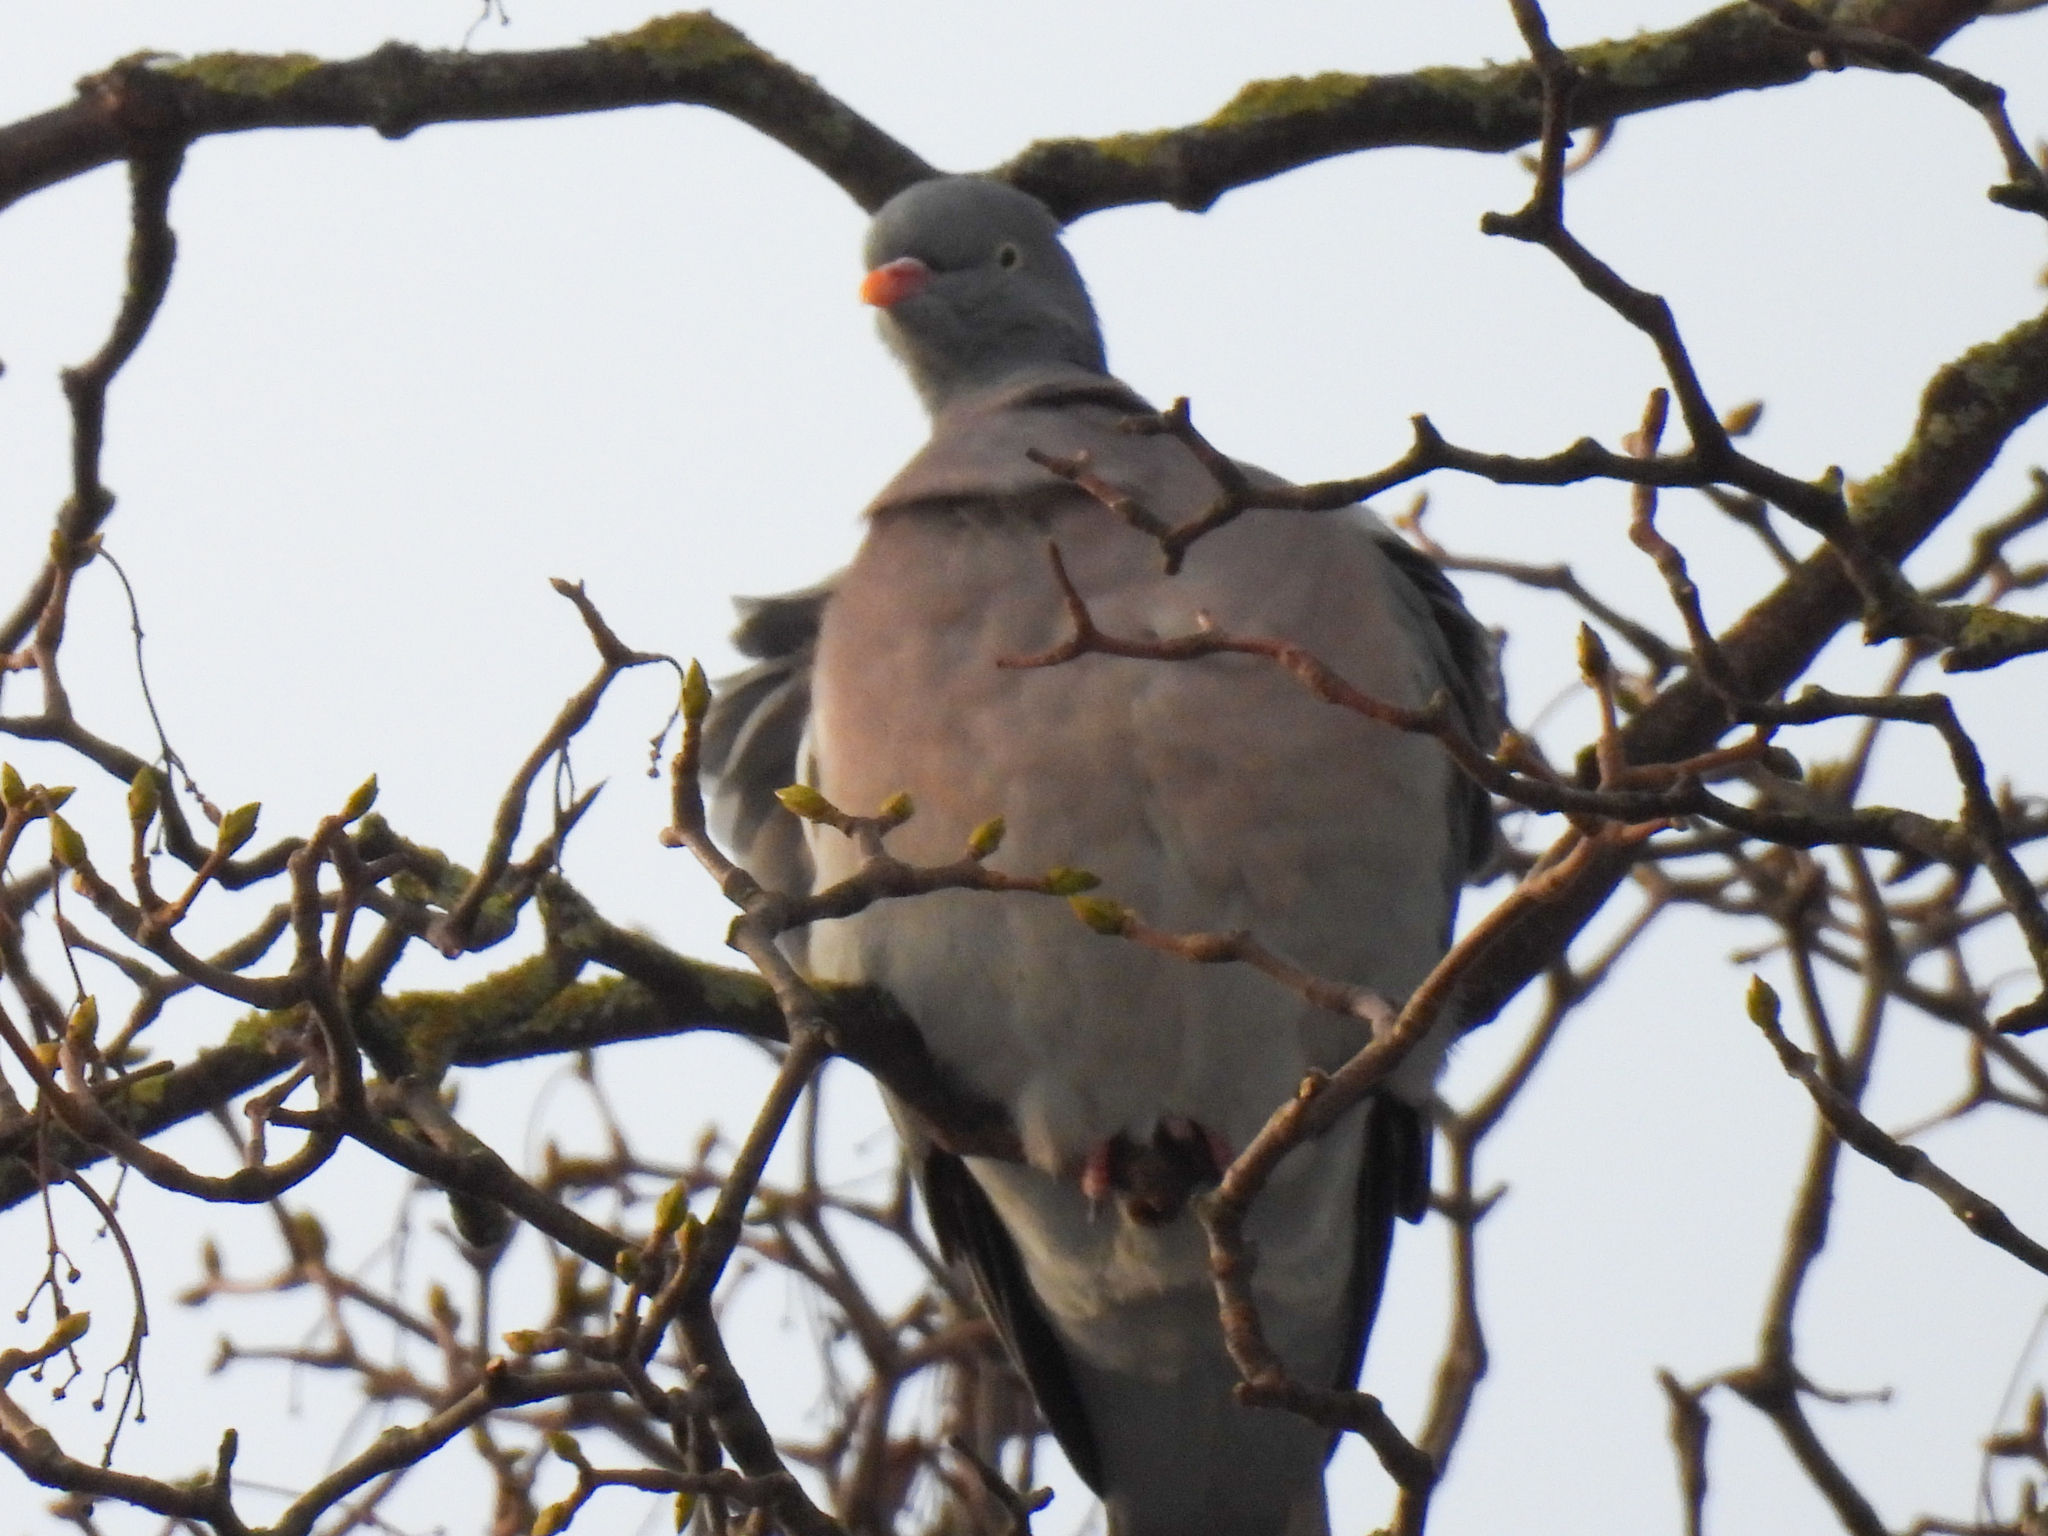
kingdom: Animalia
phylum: Chordata
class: Aves
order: Columbiformes
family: Columbidae
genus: Columba
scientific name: Columba palumbus
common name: Common wood pigeon
